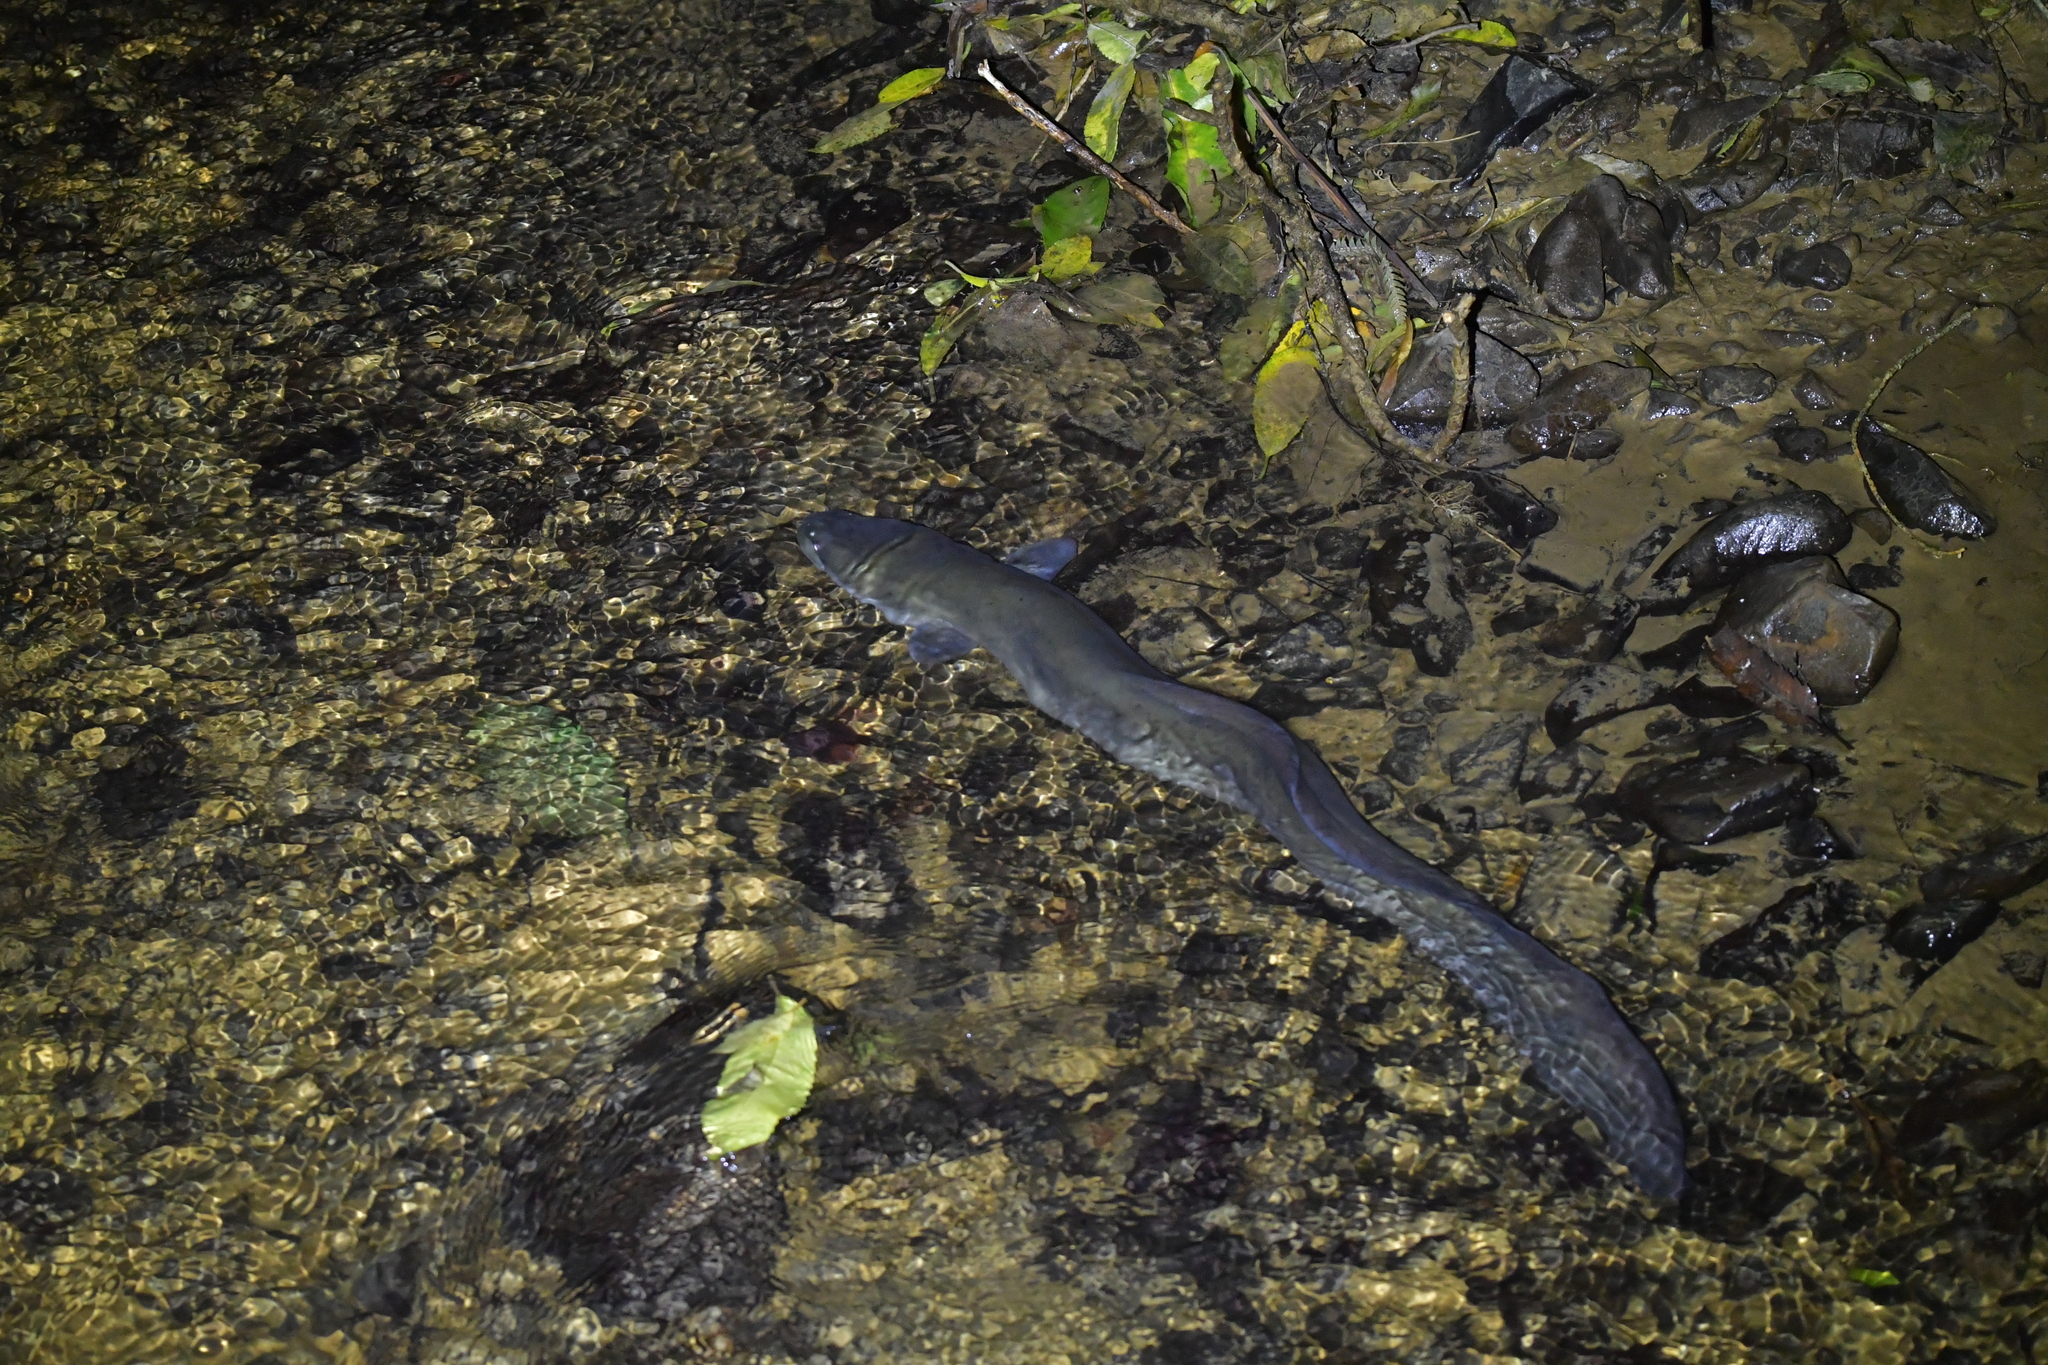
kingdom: Animalia
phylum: Chordata
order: Anguilliformes
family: Anguillidae
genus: Anguilla
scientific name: Anguilla dieffenbachii
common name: New zealand longfin eel
